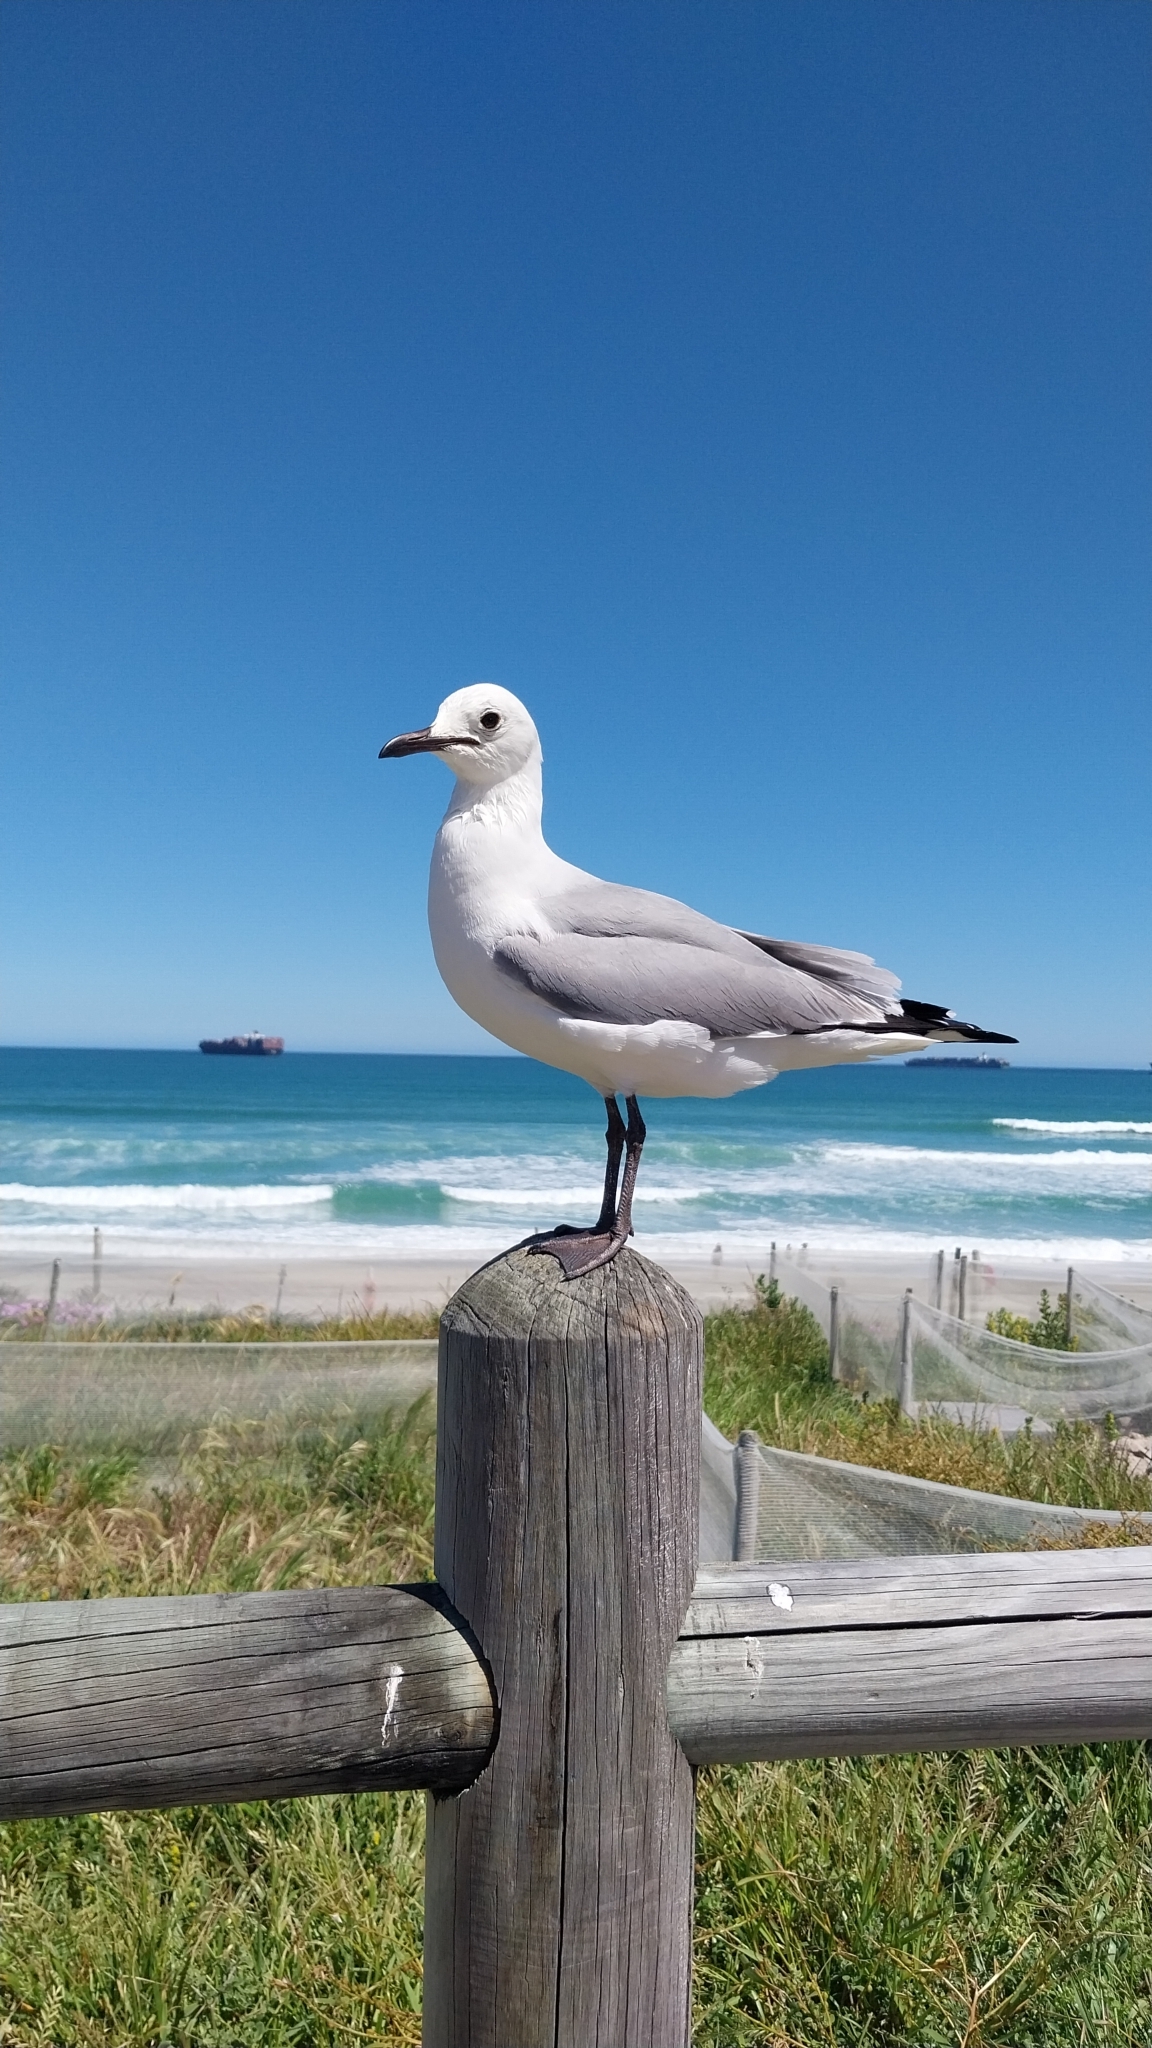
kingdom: Animalia
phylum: Chordata
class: Aves
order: Charadriiformes
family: Laridae
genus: Chroicocephalus
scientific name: Chroicocephalus hartlaubii
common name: Hartlaub's gull
